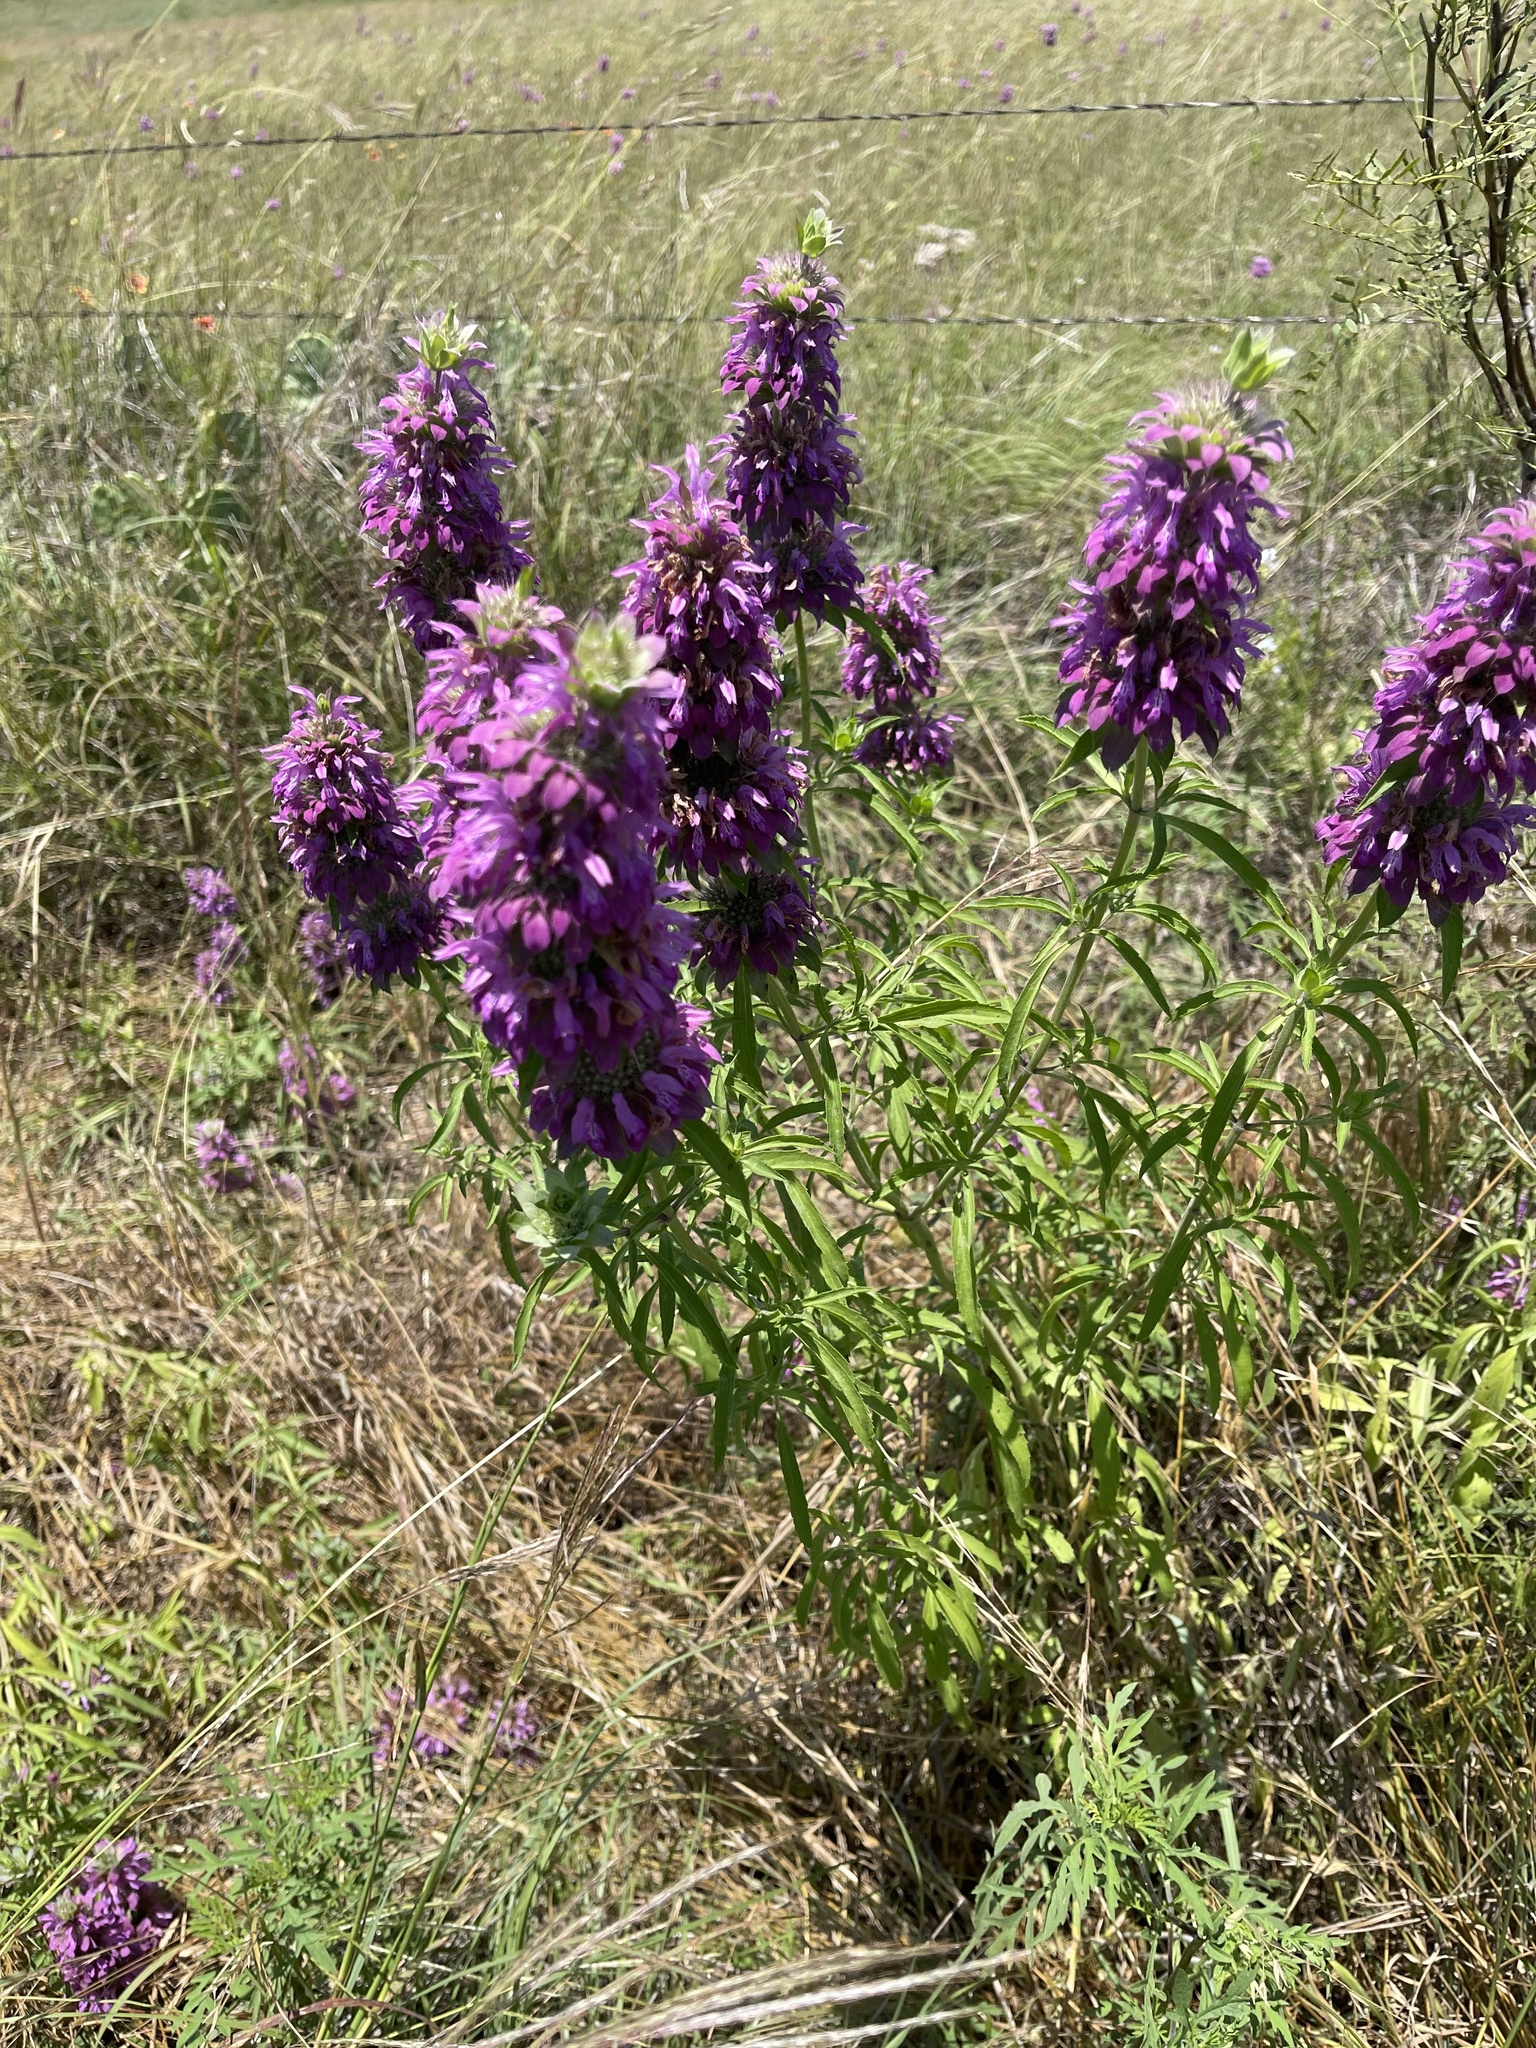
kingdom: Plantae
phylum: Tracheophyta
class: Magnoliopsida
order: Lamiales
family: Lamiaceae
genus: Monarda
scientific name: Monarda citriodora
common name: Lemon beebalm
